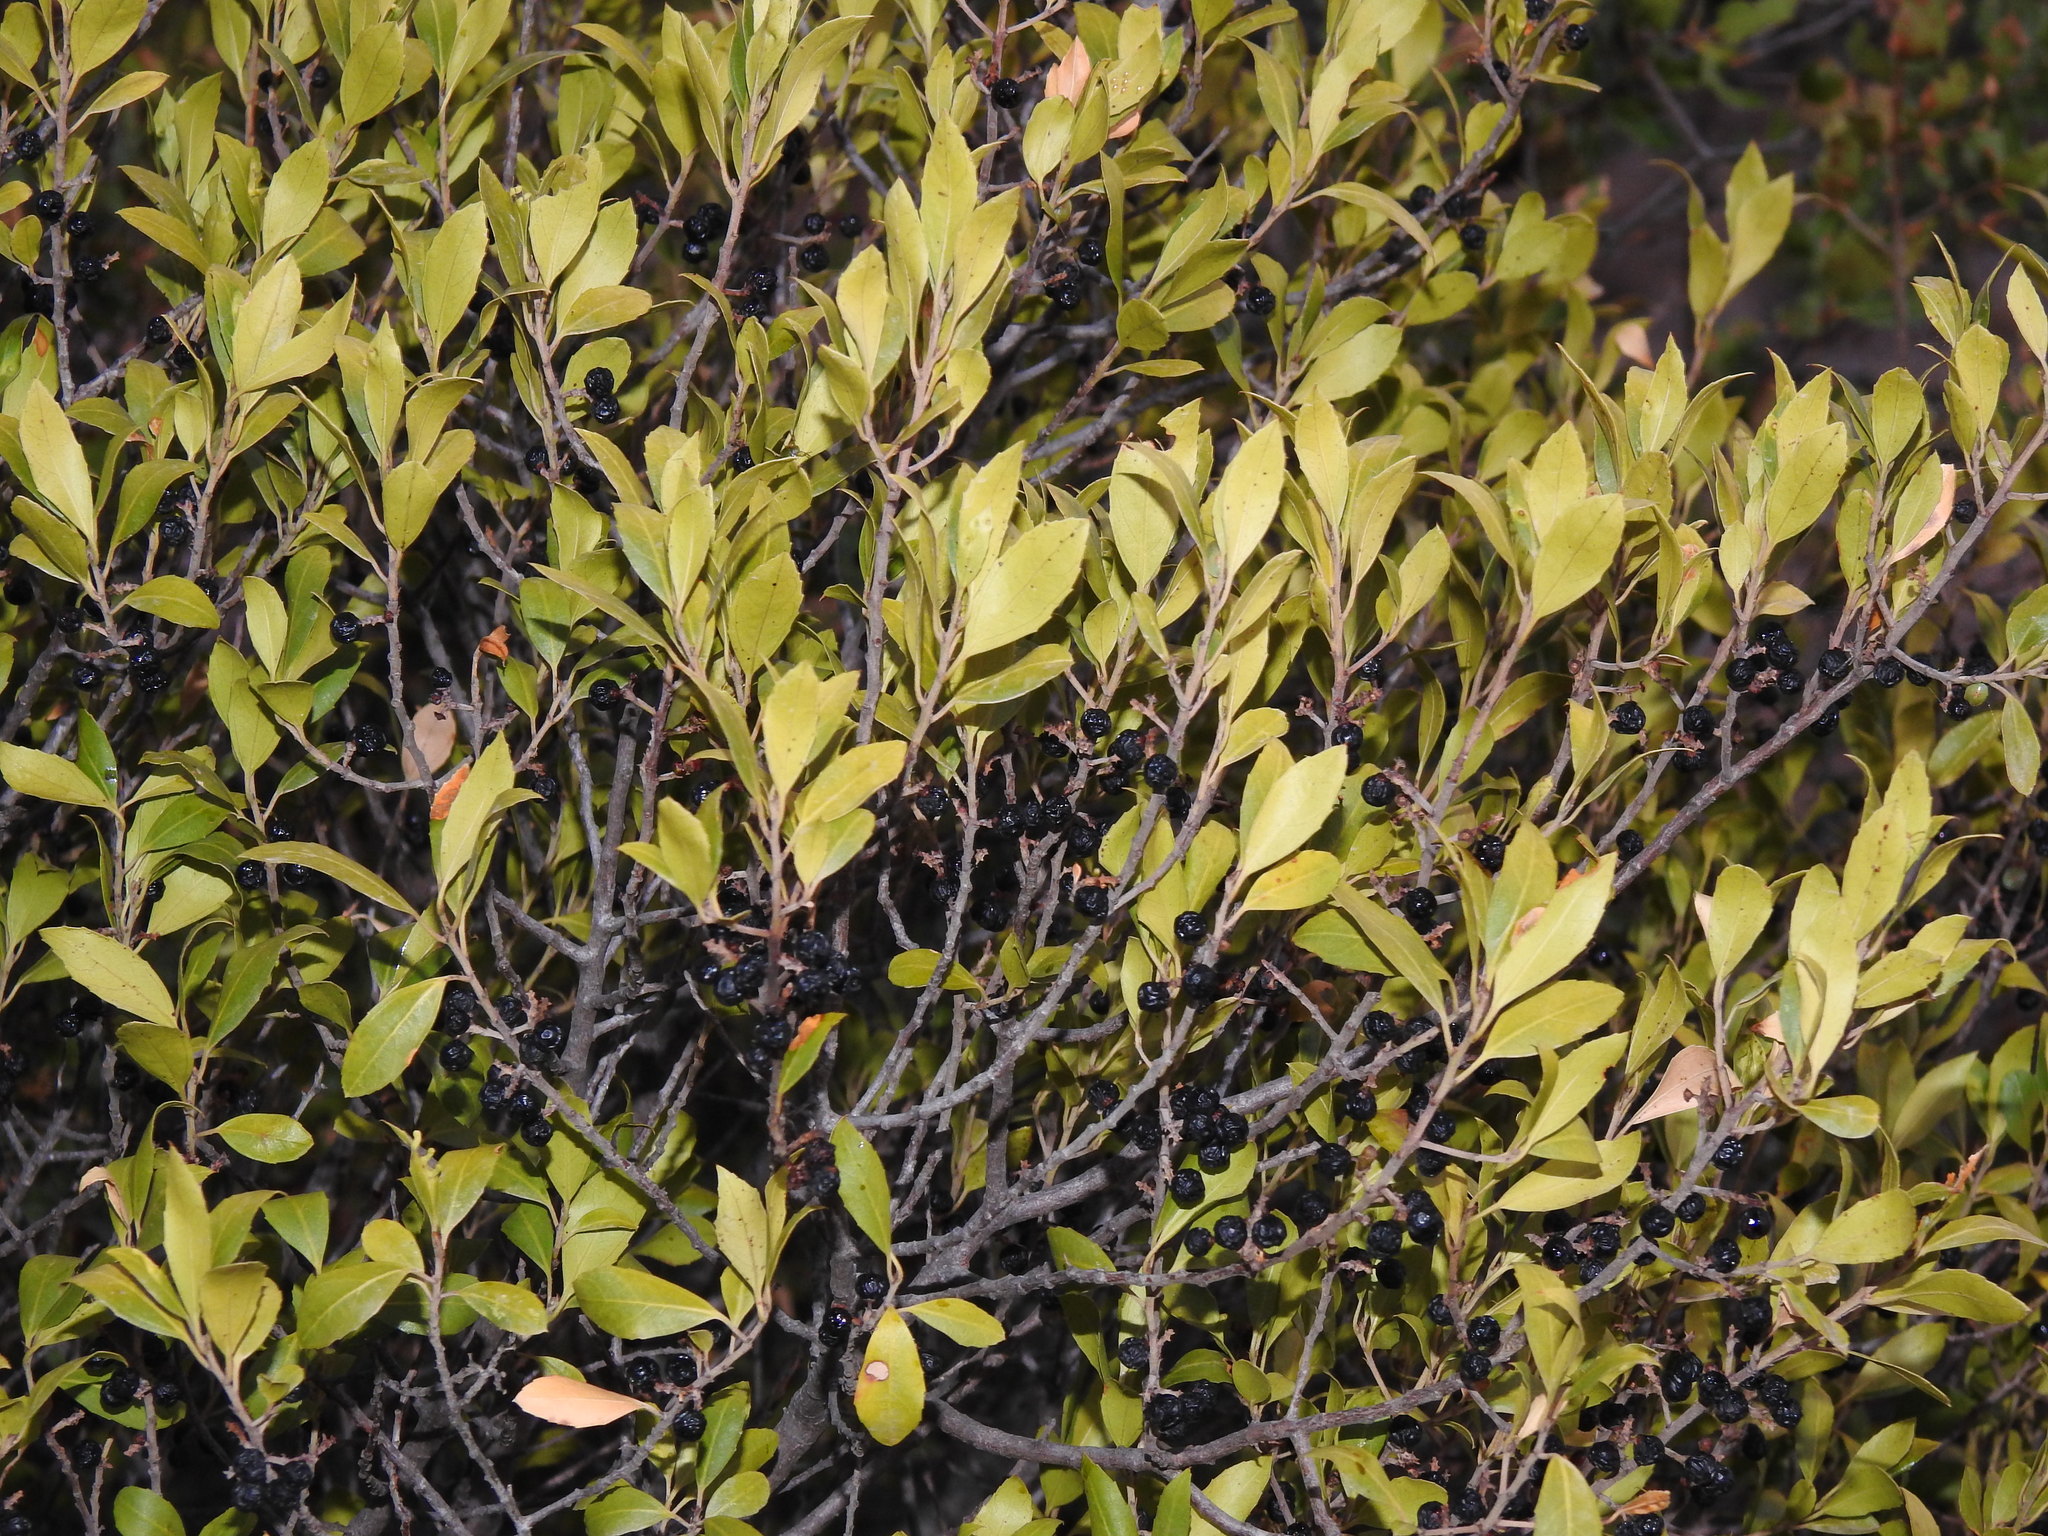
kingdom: Plantae
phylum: Tracheophyta
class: Magnoliopsida
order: Rosales
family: Rhamnaceae
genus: Rhamnus
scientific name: Rhamnus alaternus
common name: Mediterranean buckthorn
